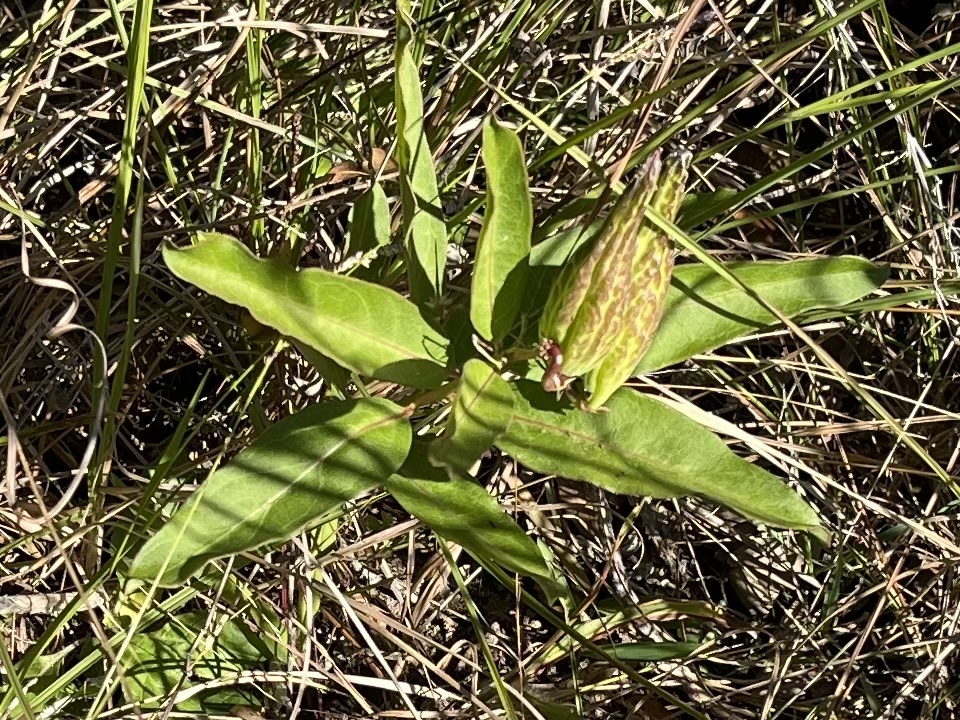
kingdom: Plantae
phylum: Tracheophyta
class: Magnoliopsida
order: Gentianales
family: Apocynaceae
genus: Asclepias
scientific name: Asclepias viridis
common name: Antelope-horns
